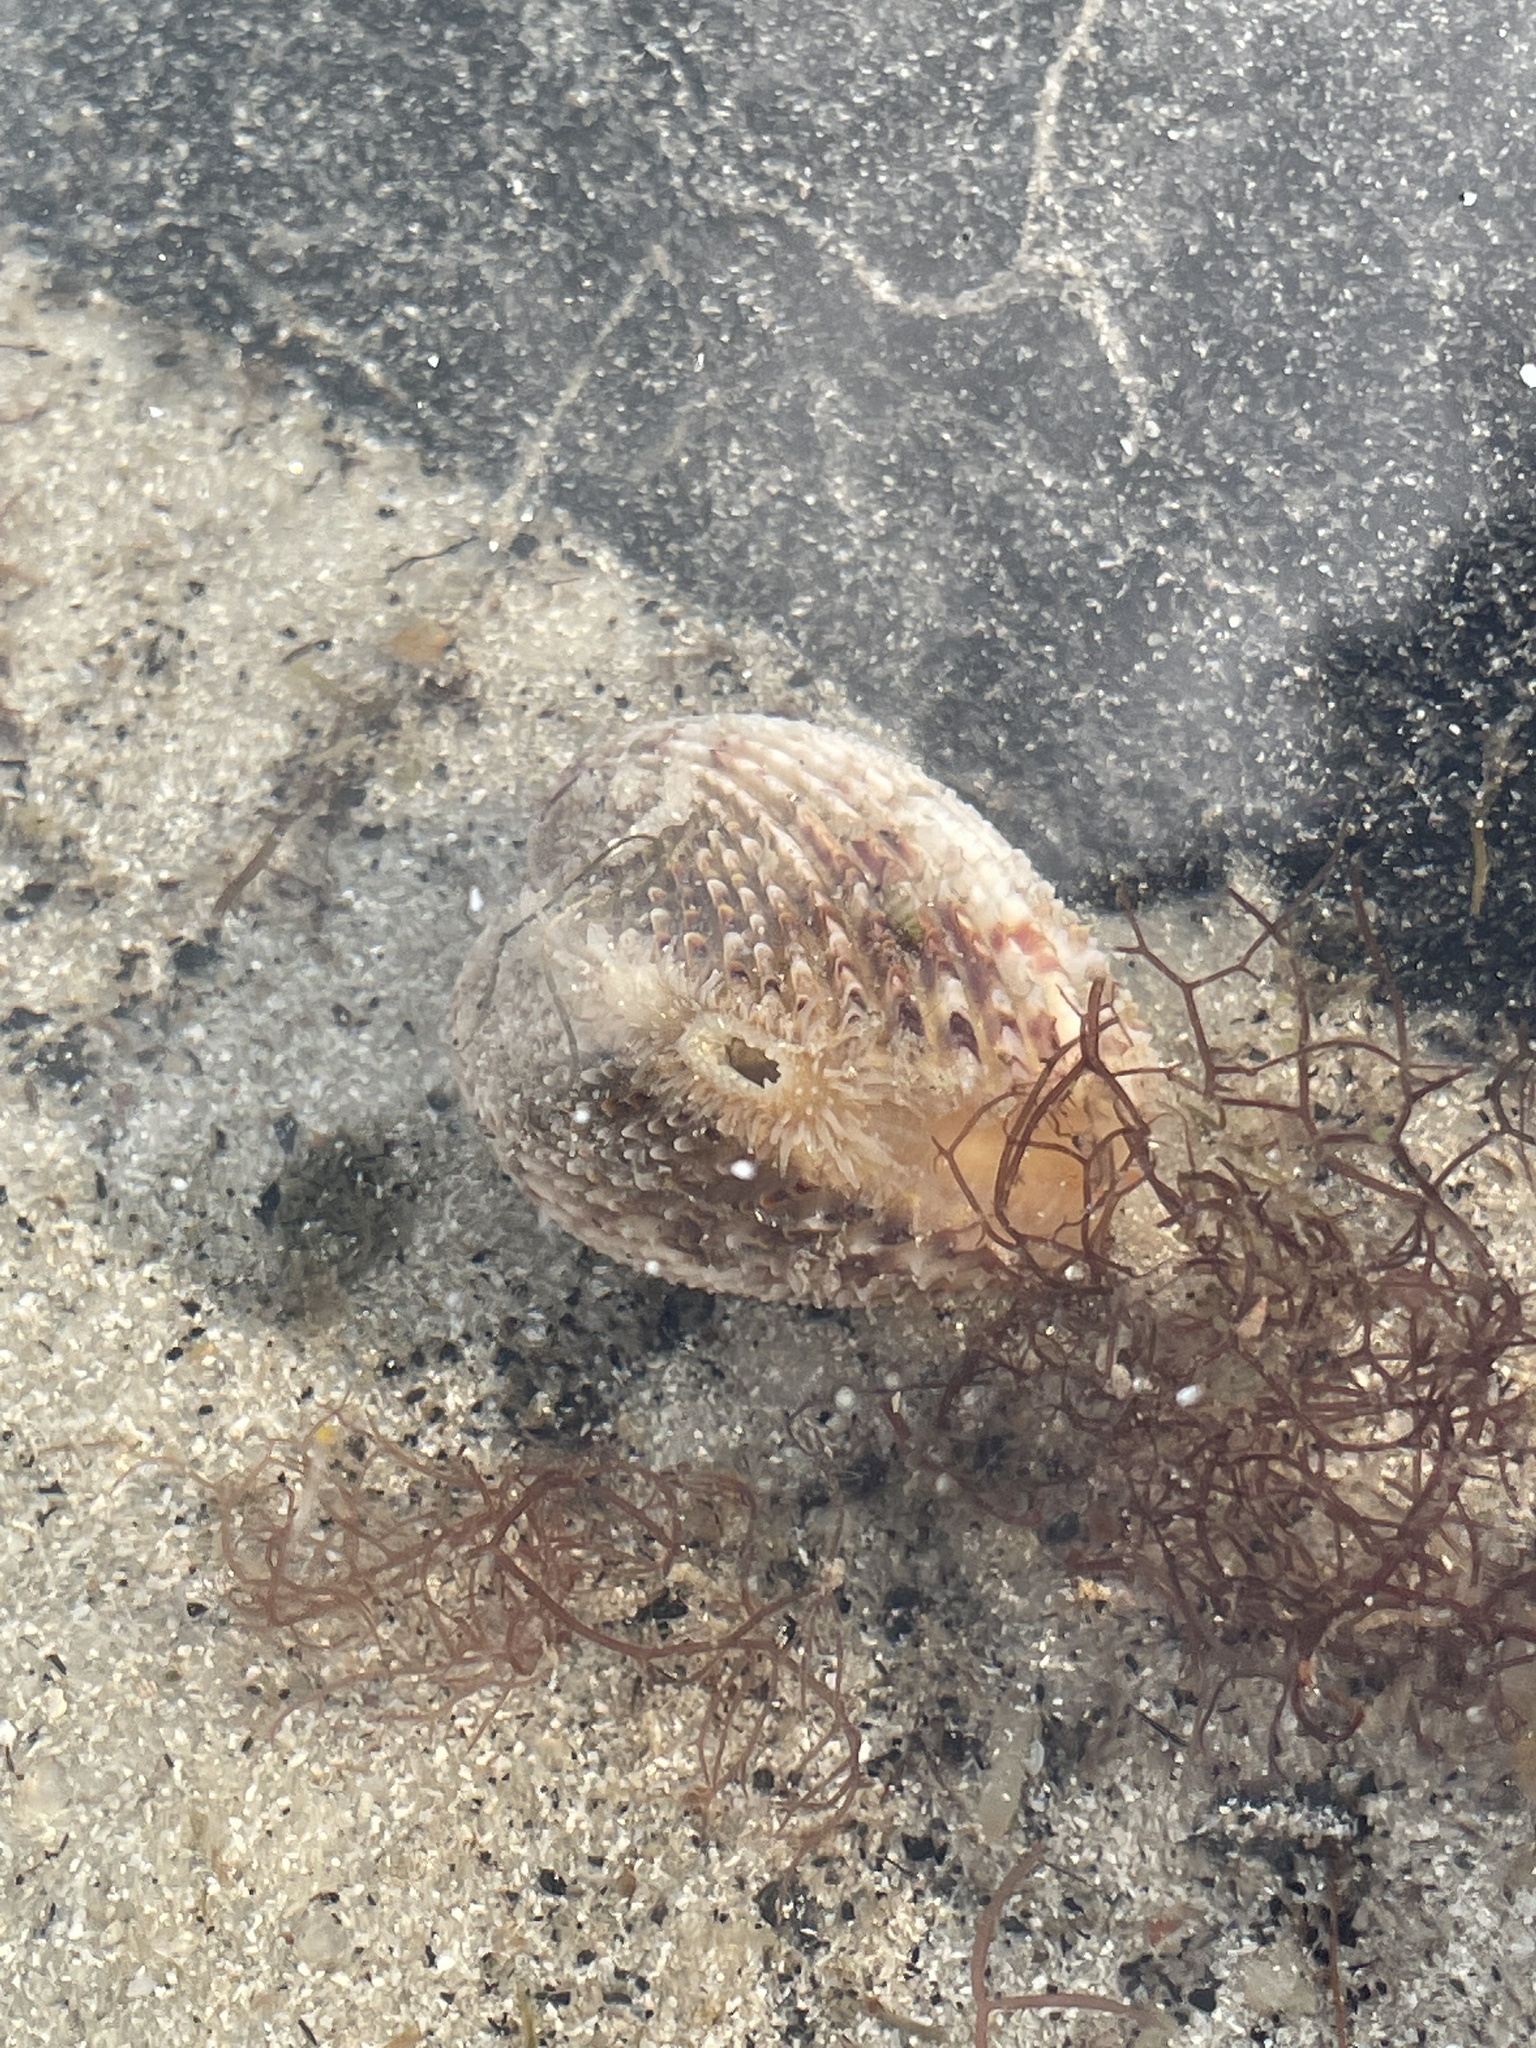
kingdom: Animalia
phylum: Mollusca
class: Bivalvia
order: Cardiida
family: Cardiidae
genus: Trachycardium
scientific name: Trachycardium egmontianum
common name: Florida pricklycockle
